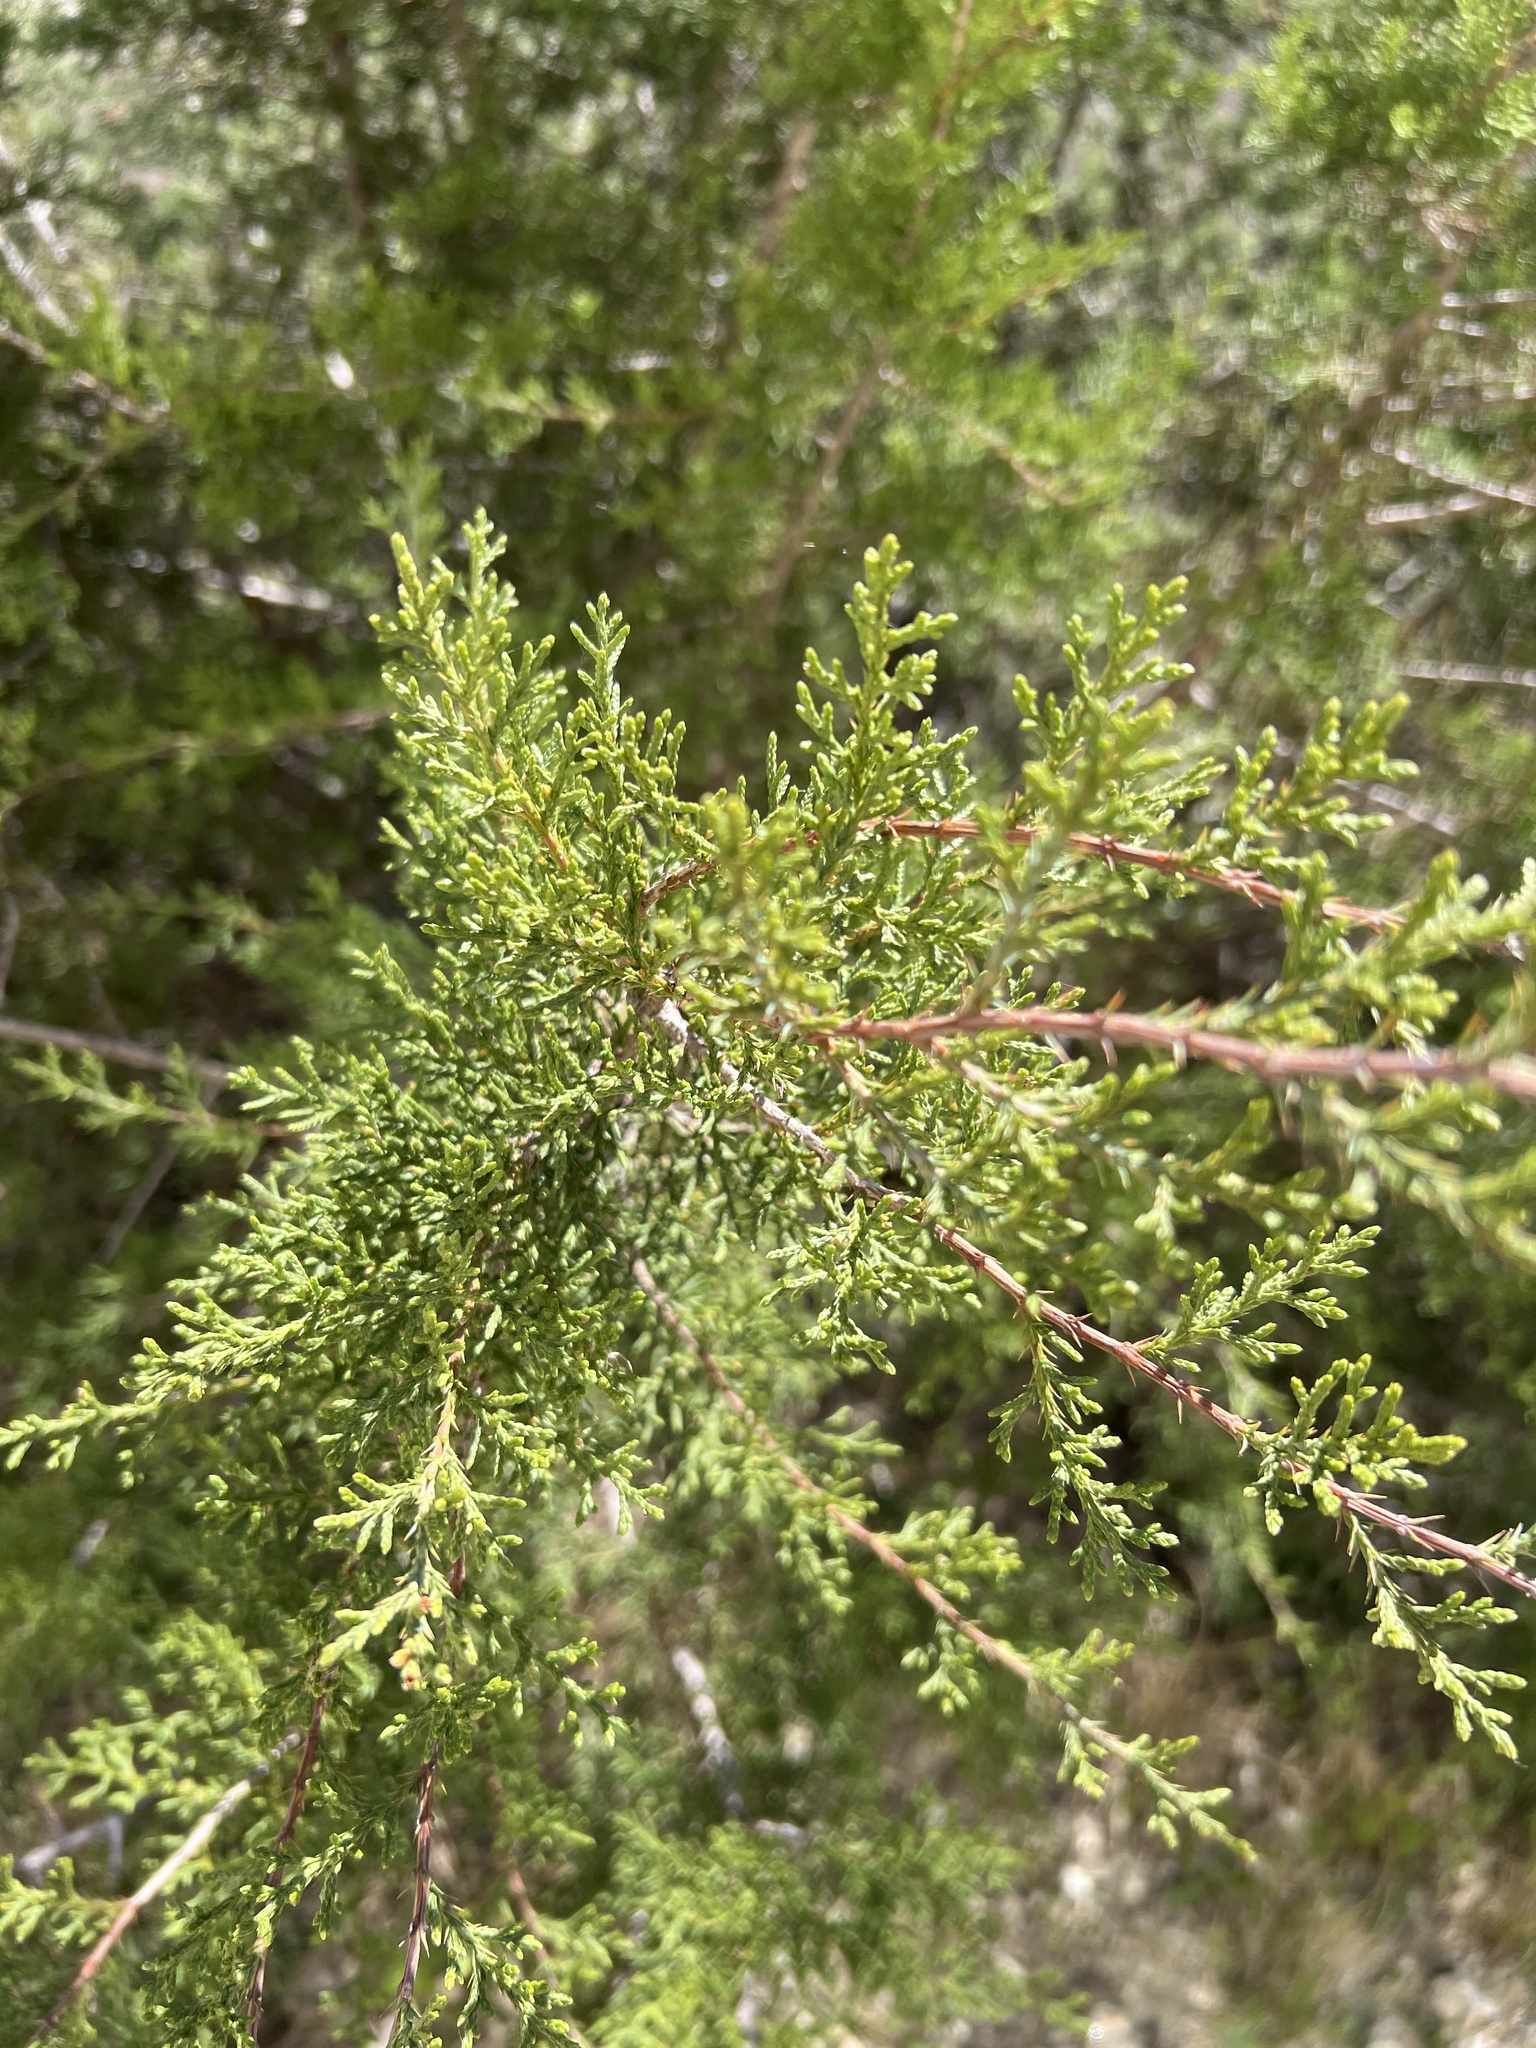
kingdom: Plantae
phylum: Tracheophyta
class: Pinopsida
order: Pinales
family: Cupressaceae
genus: Juniperus
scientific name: Juniperus ashei
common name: Mexican juniper
